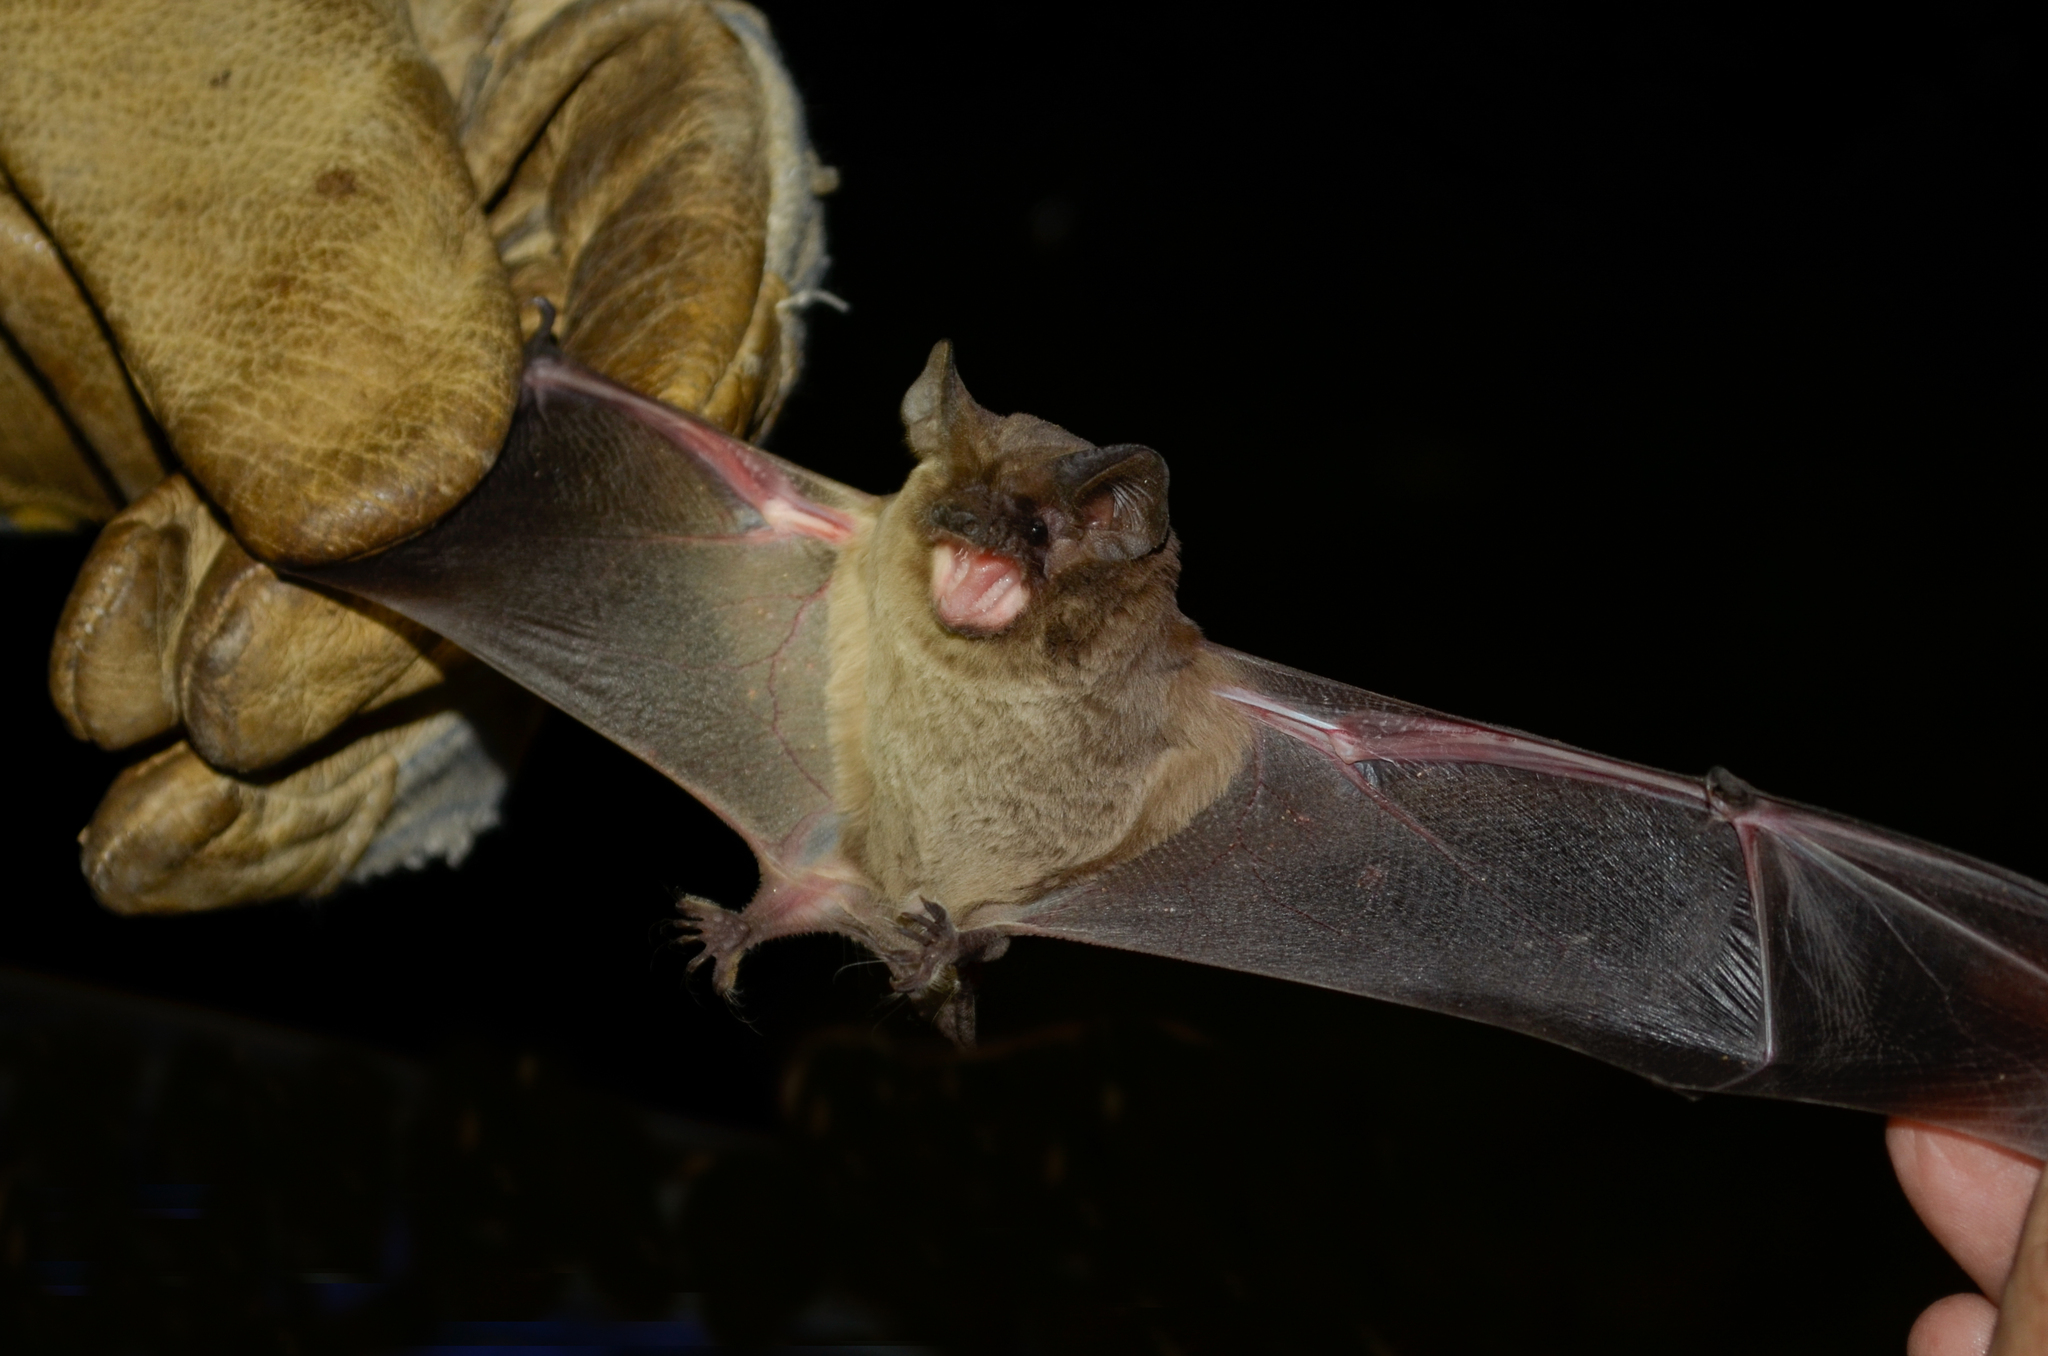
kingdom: Animalia
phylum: Chordata
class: Mammalia
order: Chiroptera
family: Molossidae
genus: Tadarida
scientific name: Tadarida brasiliensis
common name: Mexican free-tailed bat
